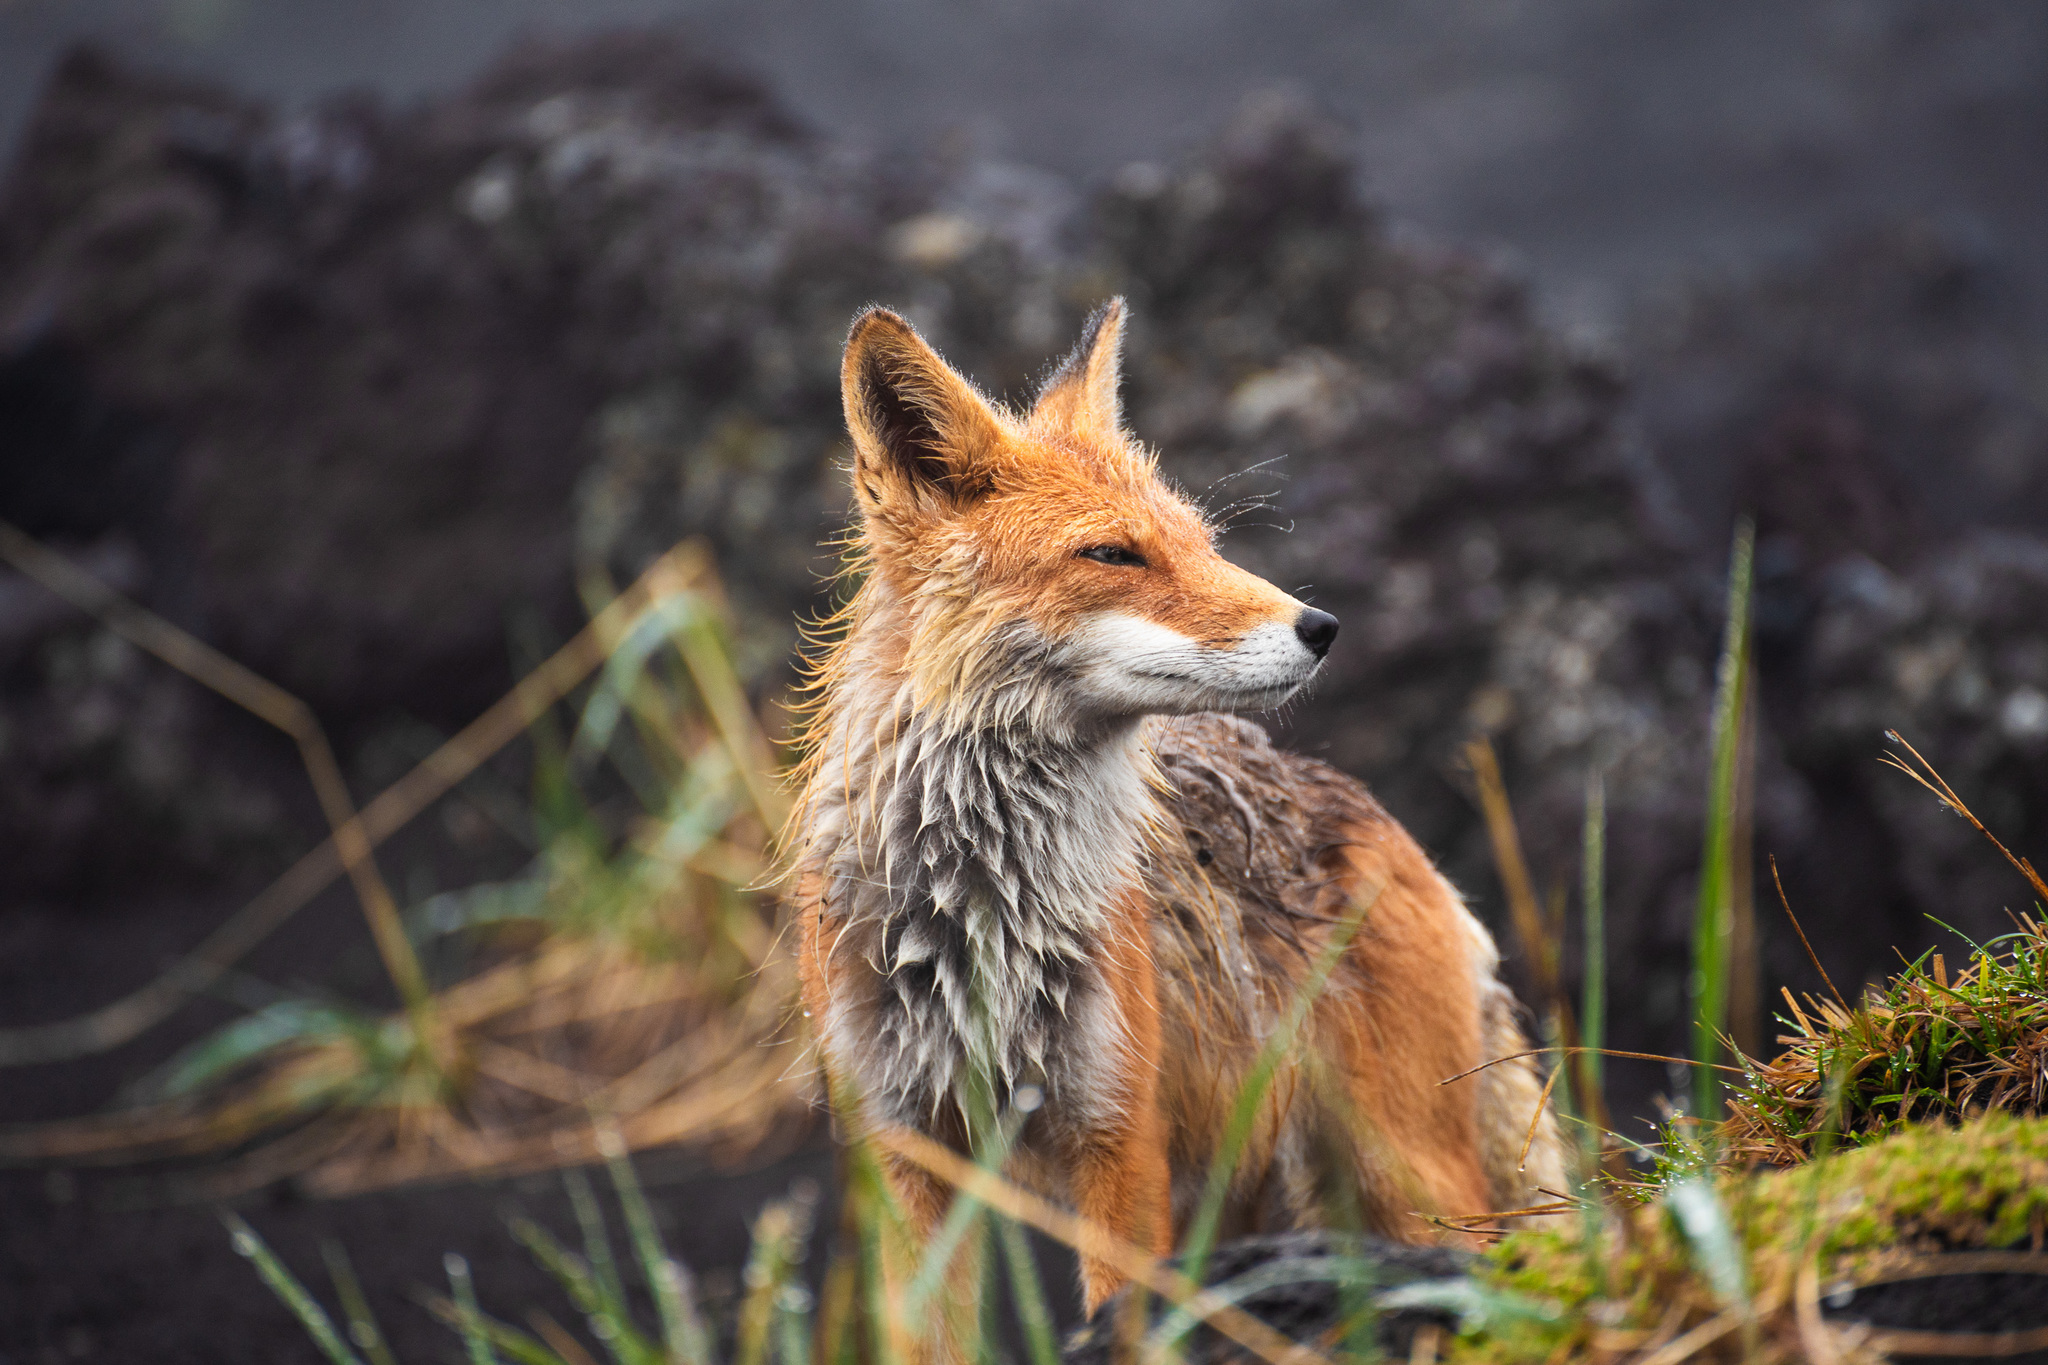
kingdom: Animalia
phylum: Chordata
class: Mammalia
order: Carnivora
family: Canidae
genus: Vulpes
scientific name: Vulpes vulpes
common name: Red fox
